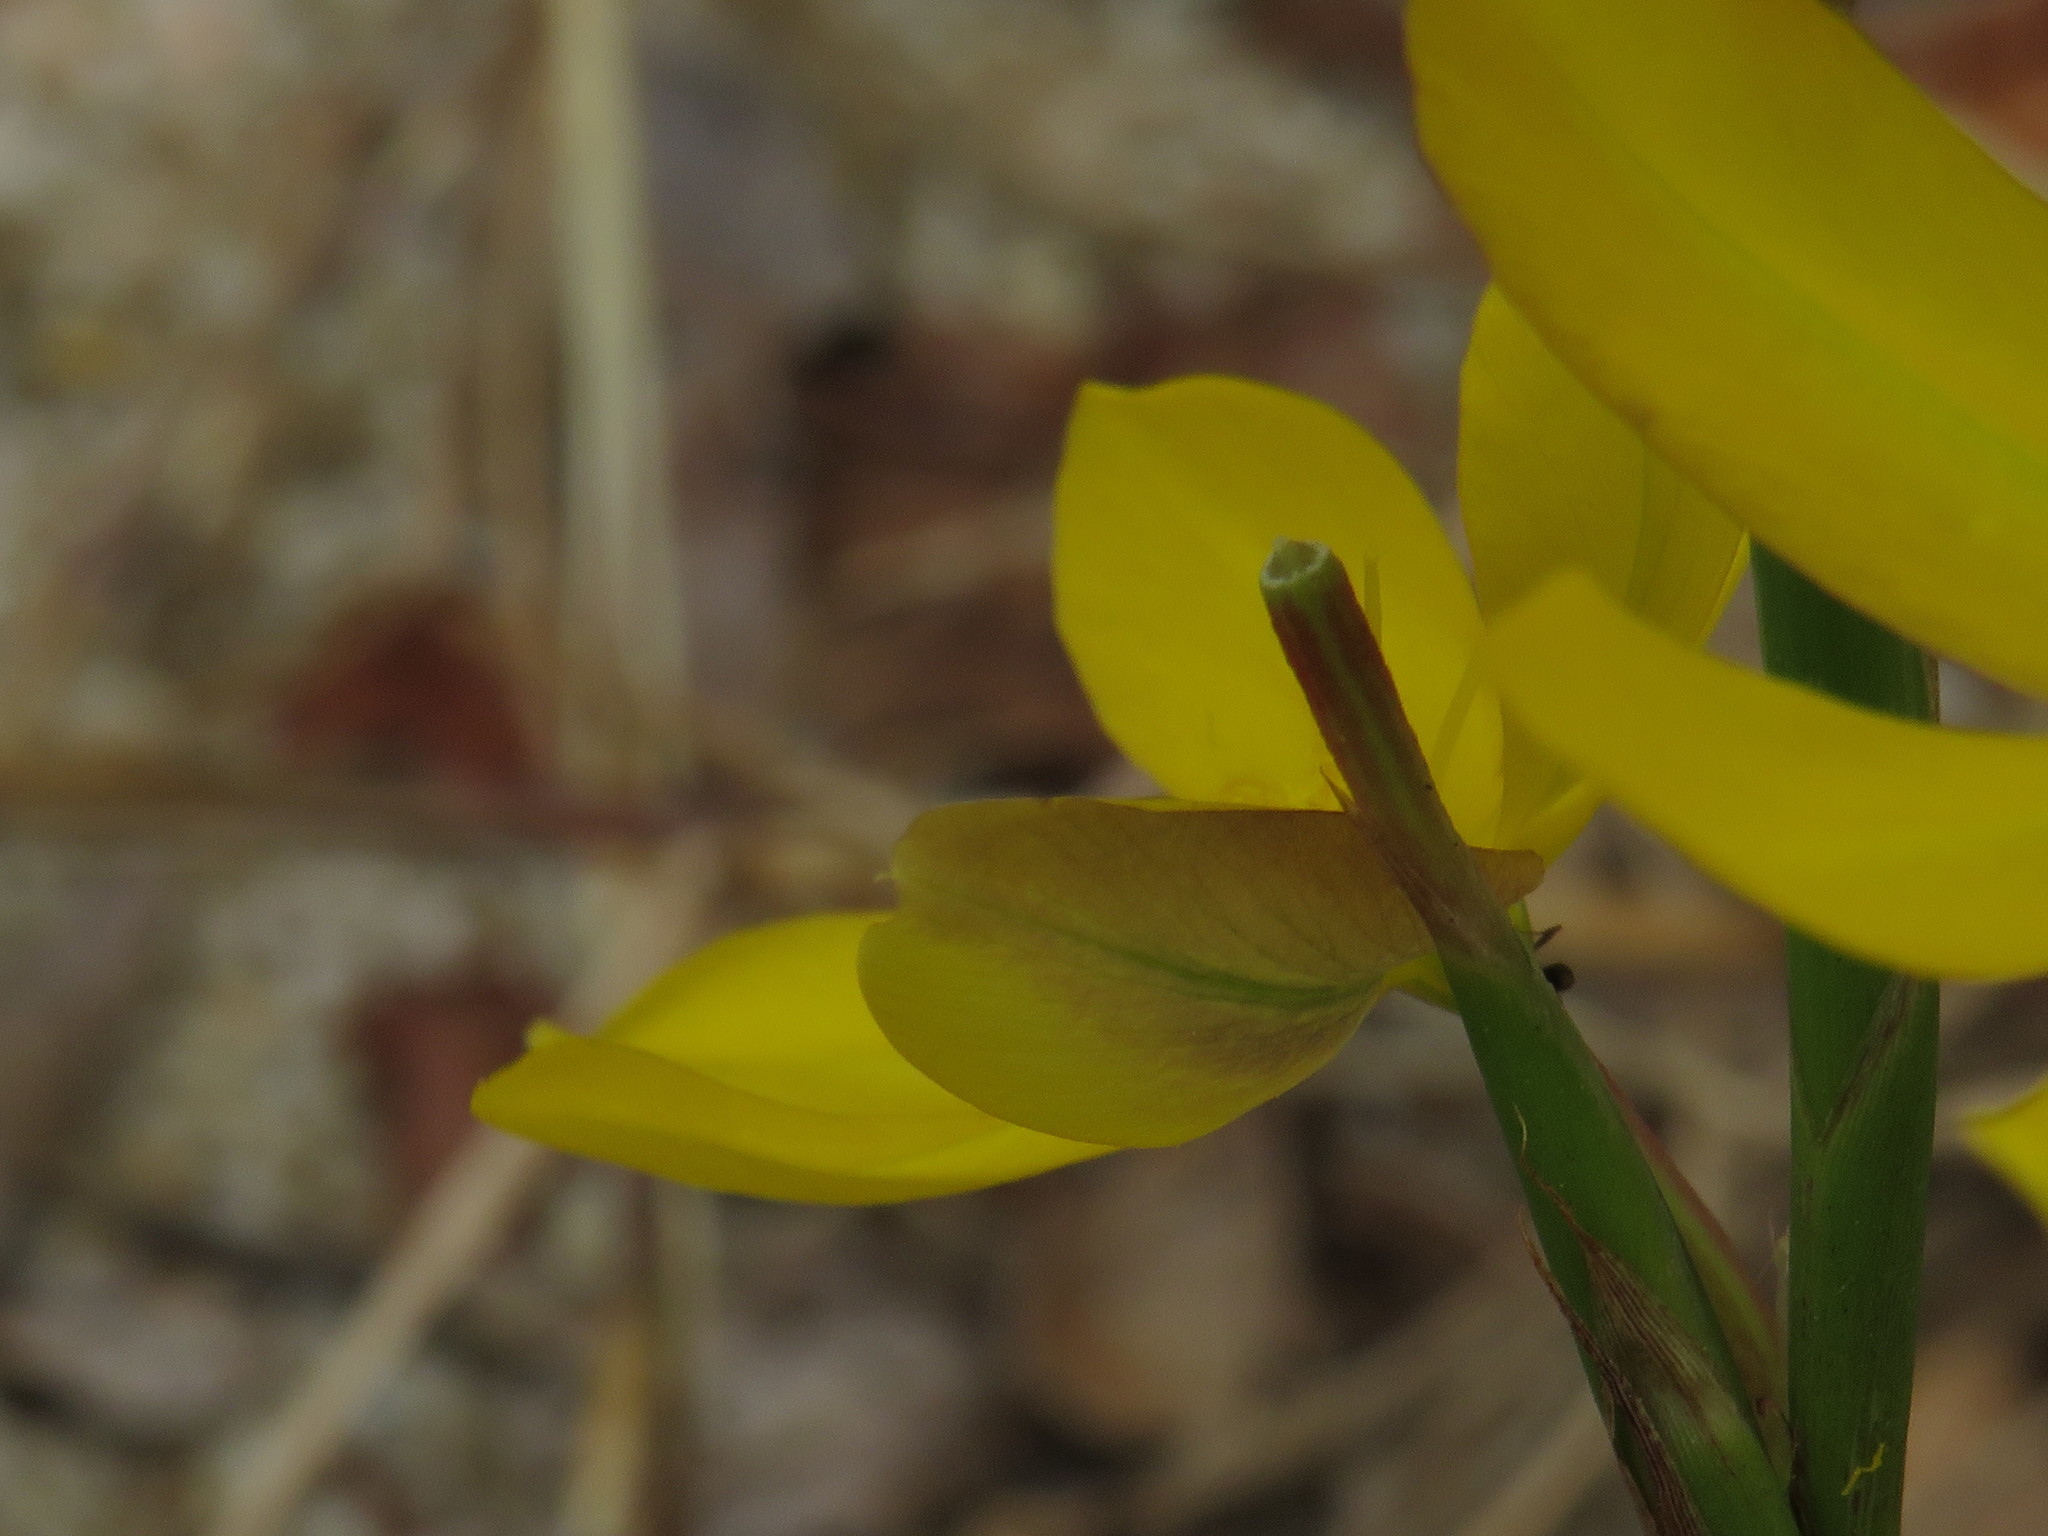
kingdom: Plantae
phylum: Tracheophyta
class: Liliopsida
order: Asparagales
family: Iridaceae
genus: Moraea
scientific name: Moraea lewisiae
